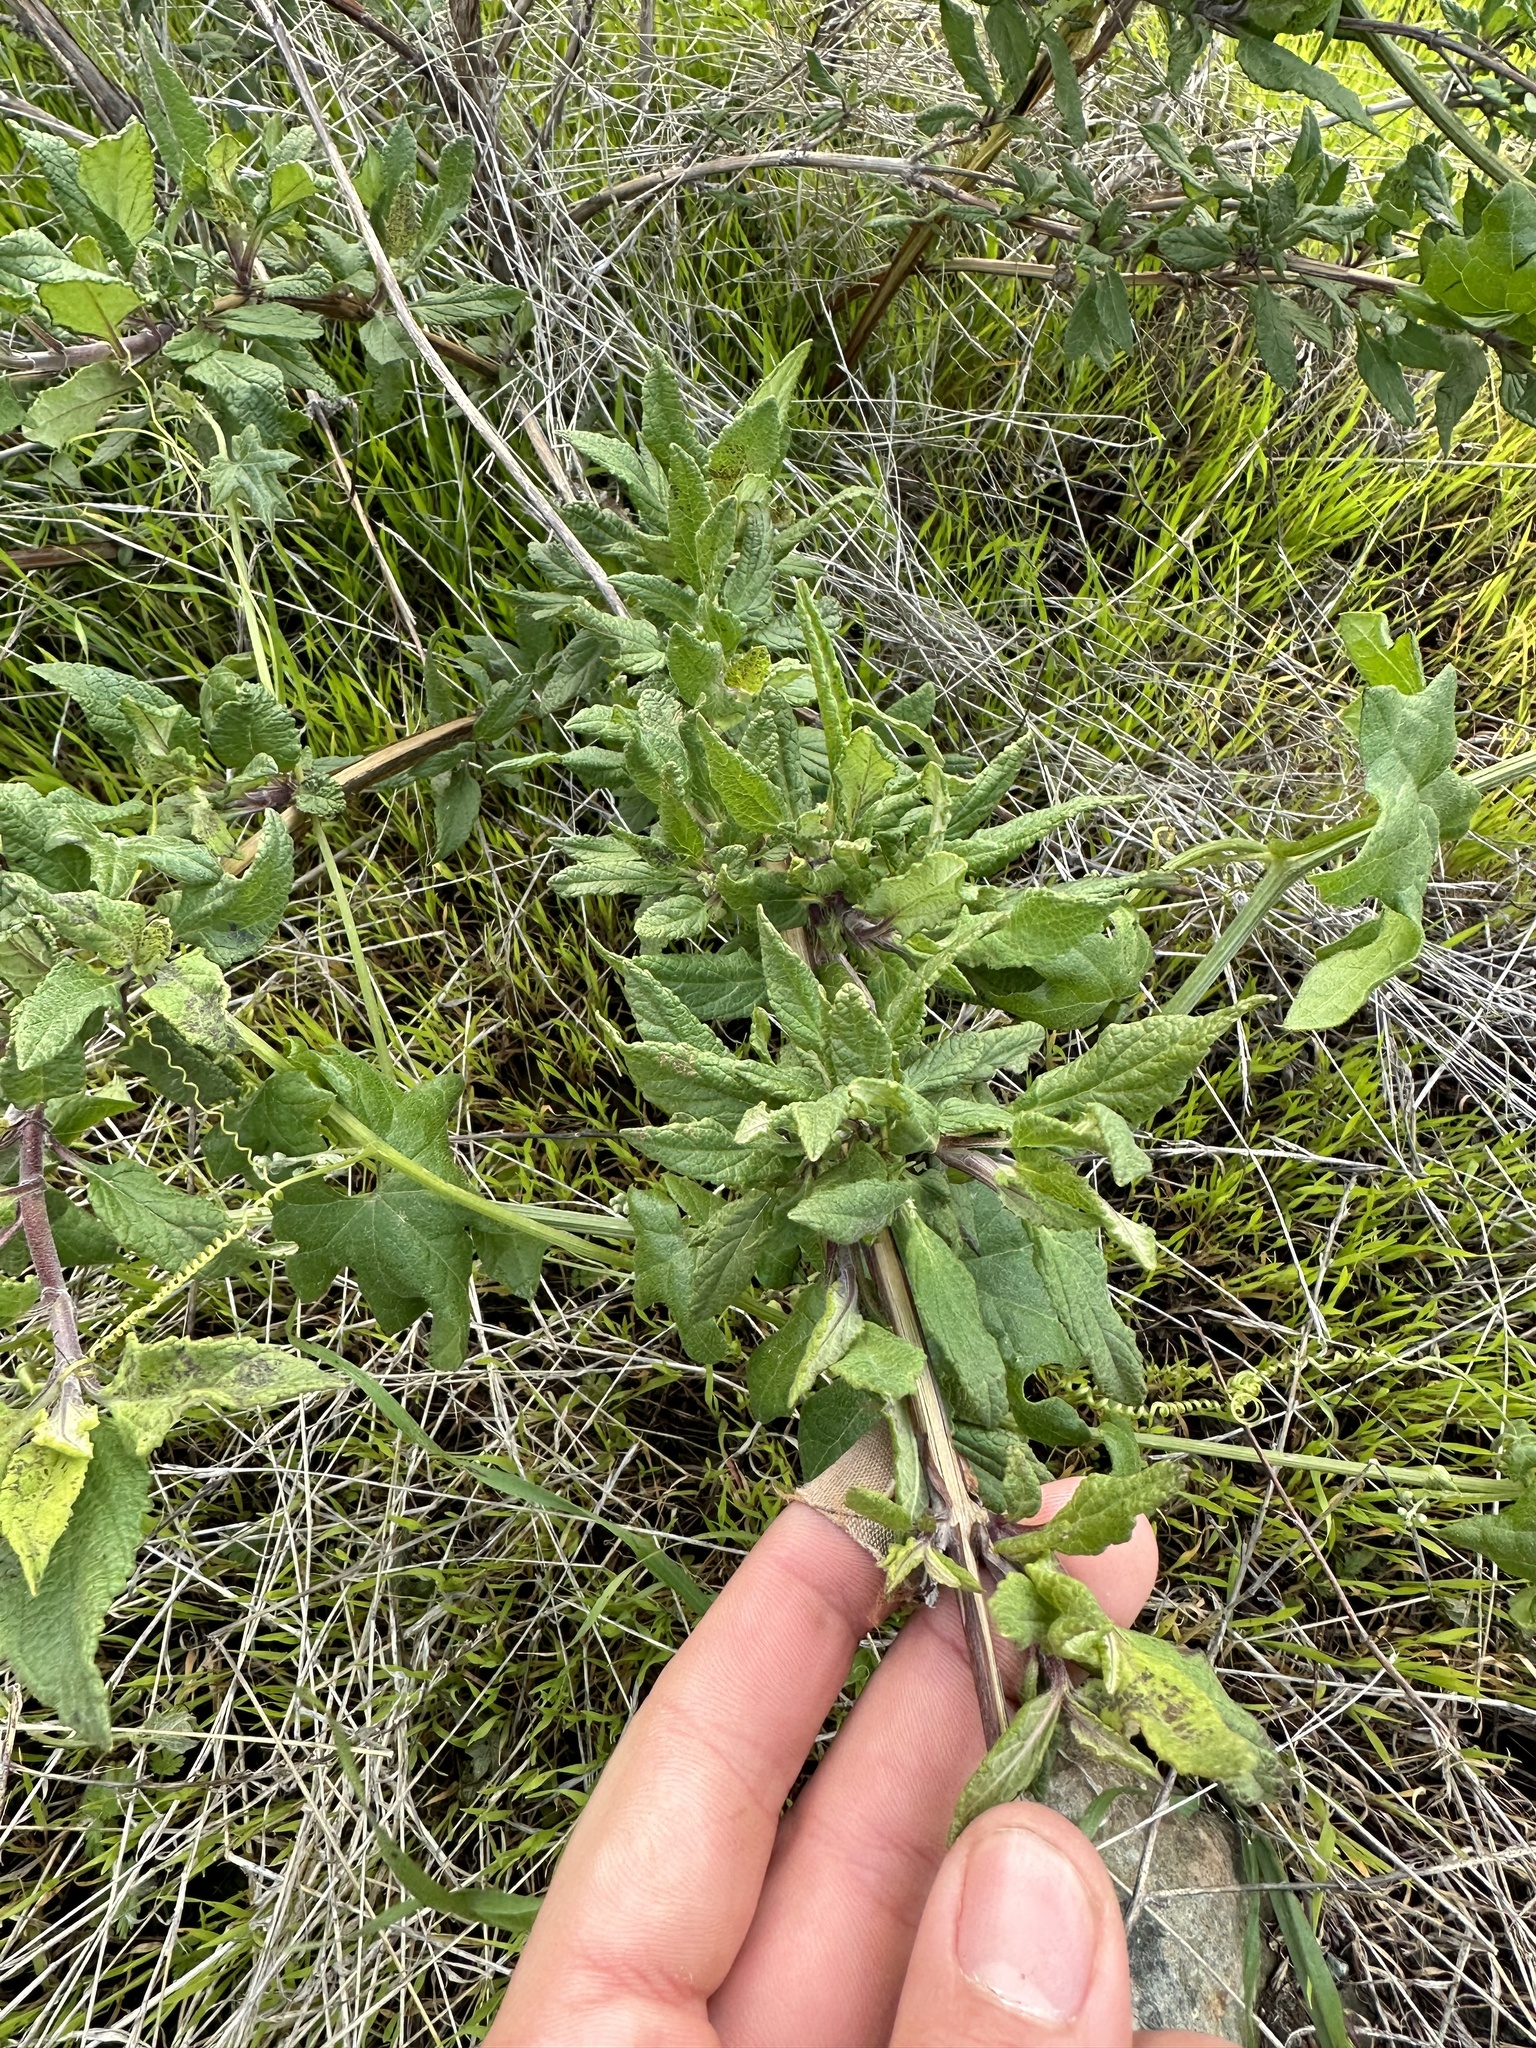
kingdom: Plantae
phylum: Tracheophyta
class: Magnoliopsida
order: Lamiales
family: Lamiaceae
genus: Lepechinia
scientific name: Lepechinia ganderi
